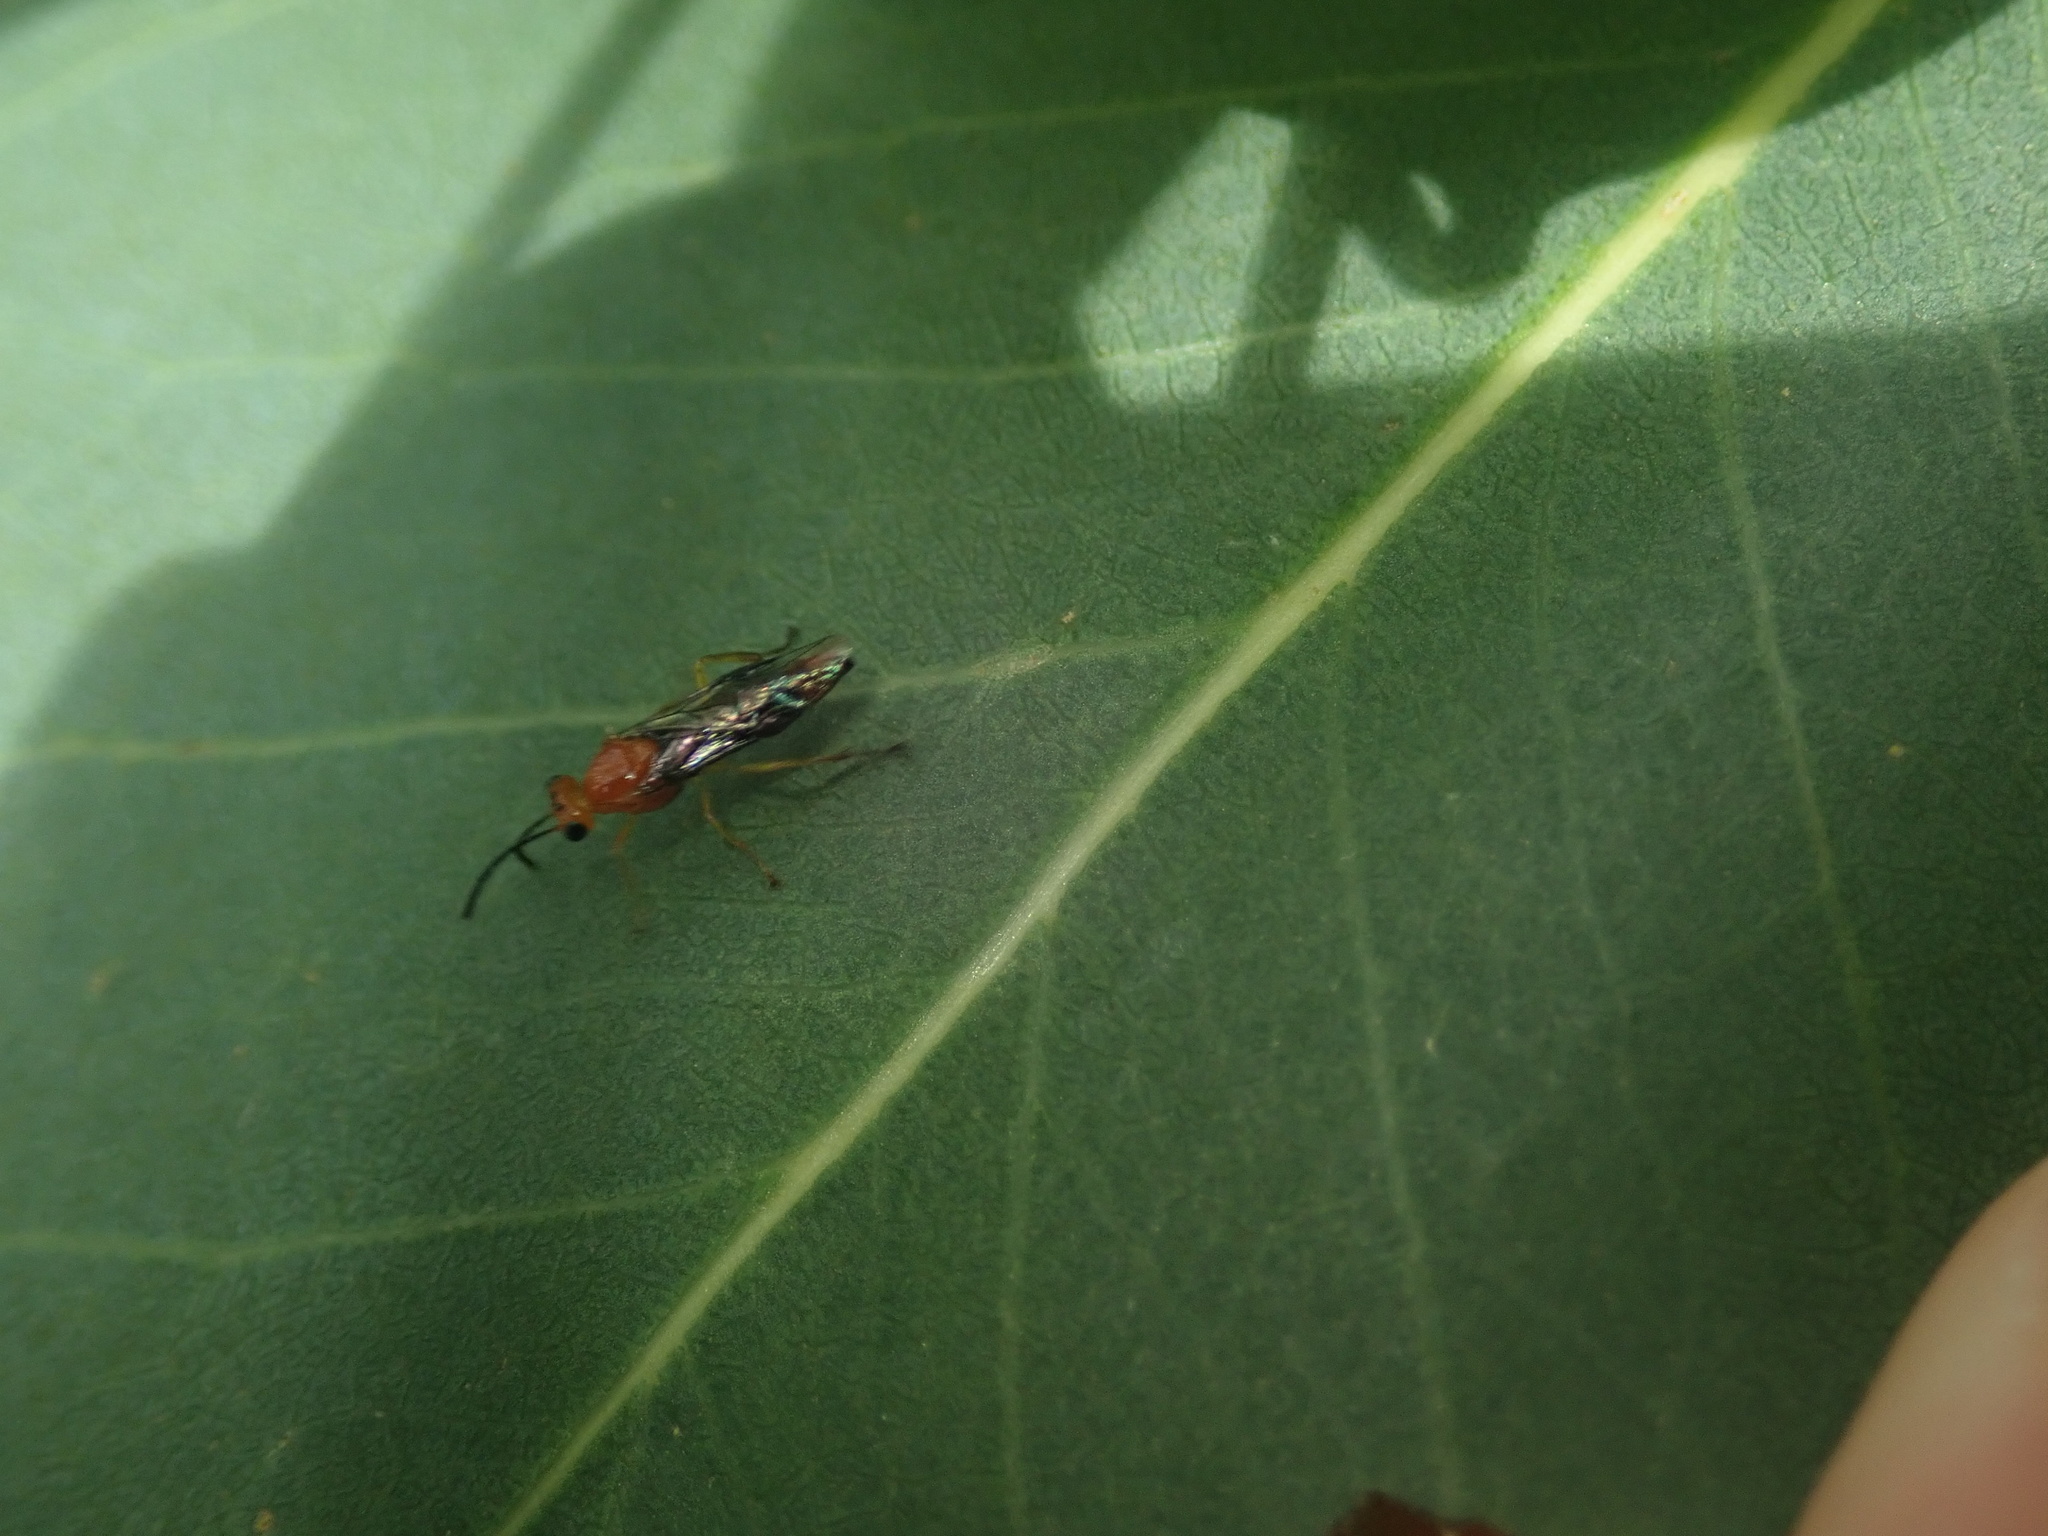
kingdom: Animalia
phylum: Arthropoda
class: Insecta
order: Hymenoptera
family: Pergidae
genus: Phylacteophaga
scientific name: Phylacteophaga froggatti
